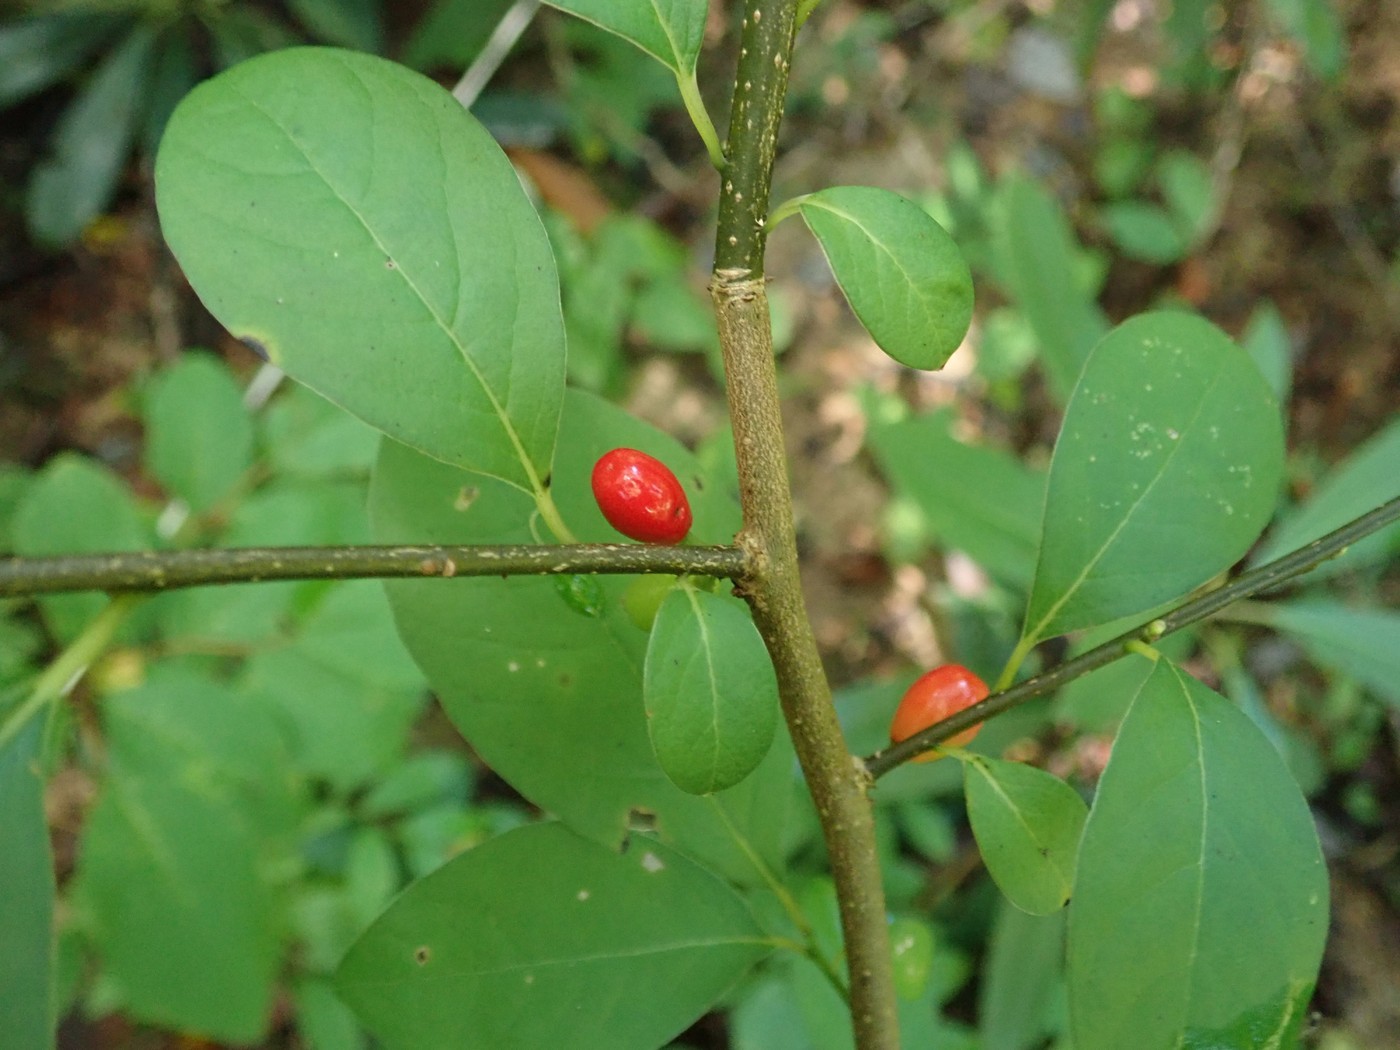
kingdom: Plantae
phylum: Tracheophyta
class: Magnoliopsida
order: Laurales
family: Lauraceae
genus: Lindera
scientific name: Lindera benzoin
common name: Spicebush
